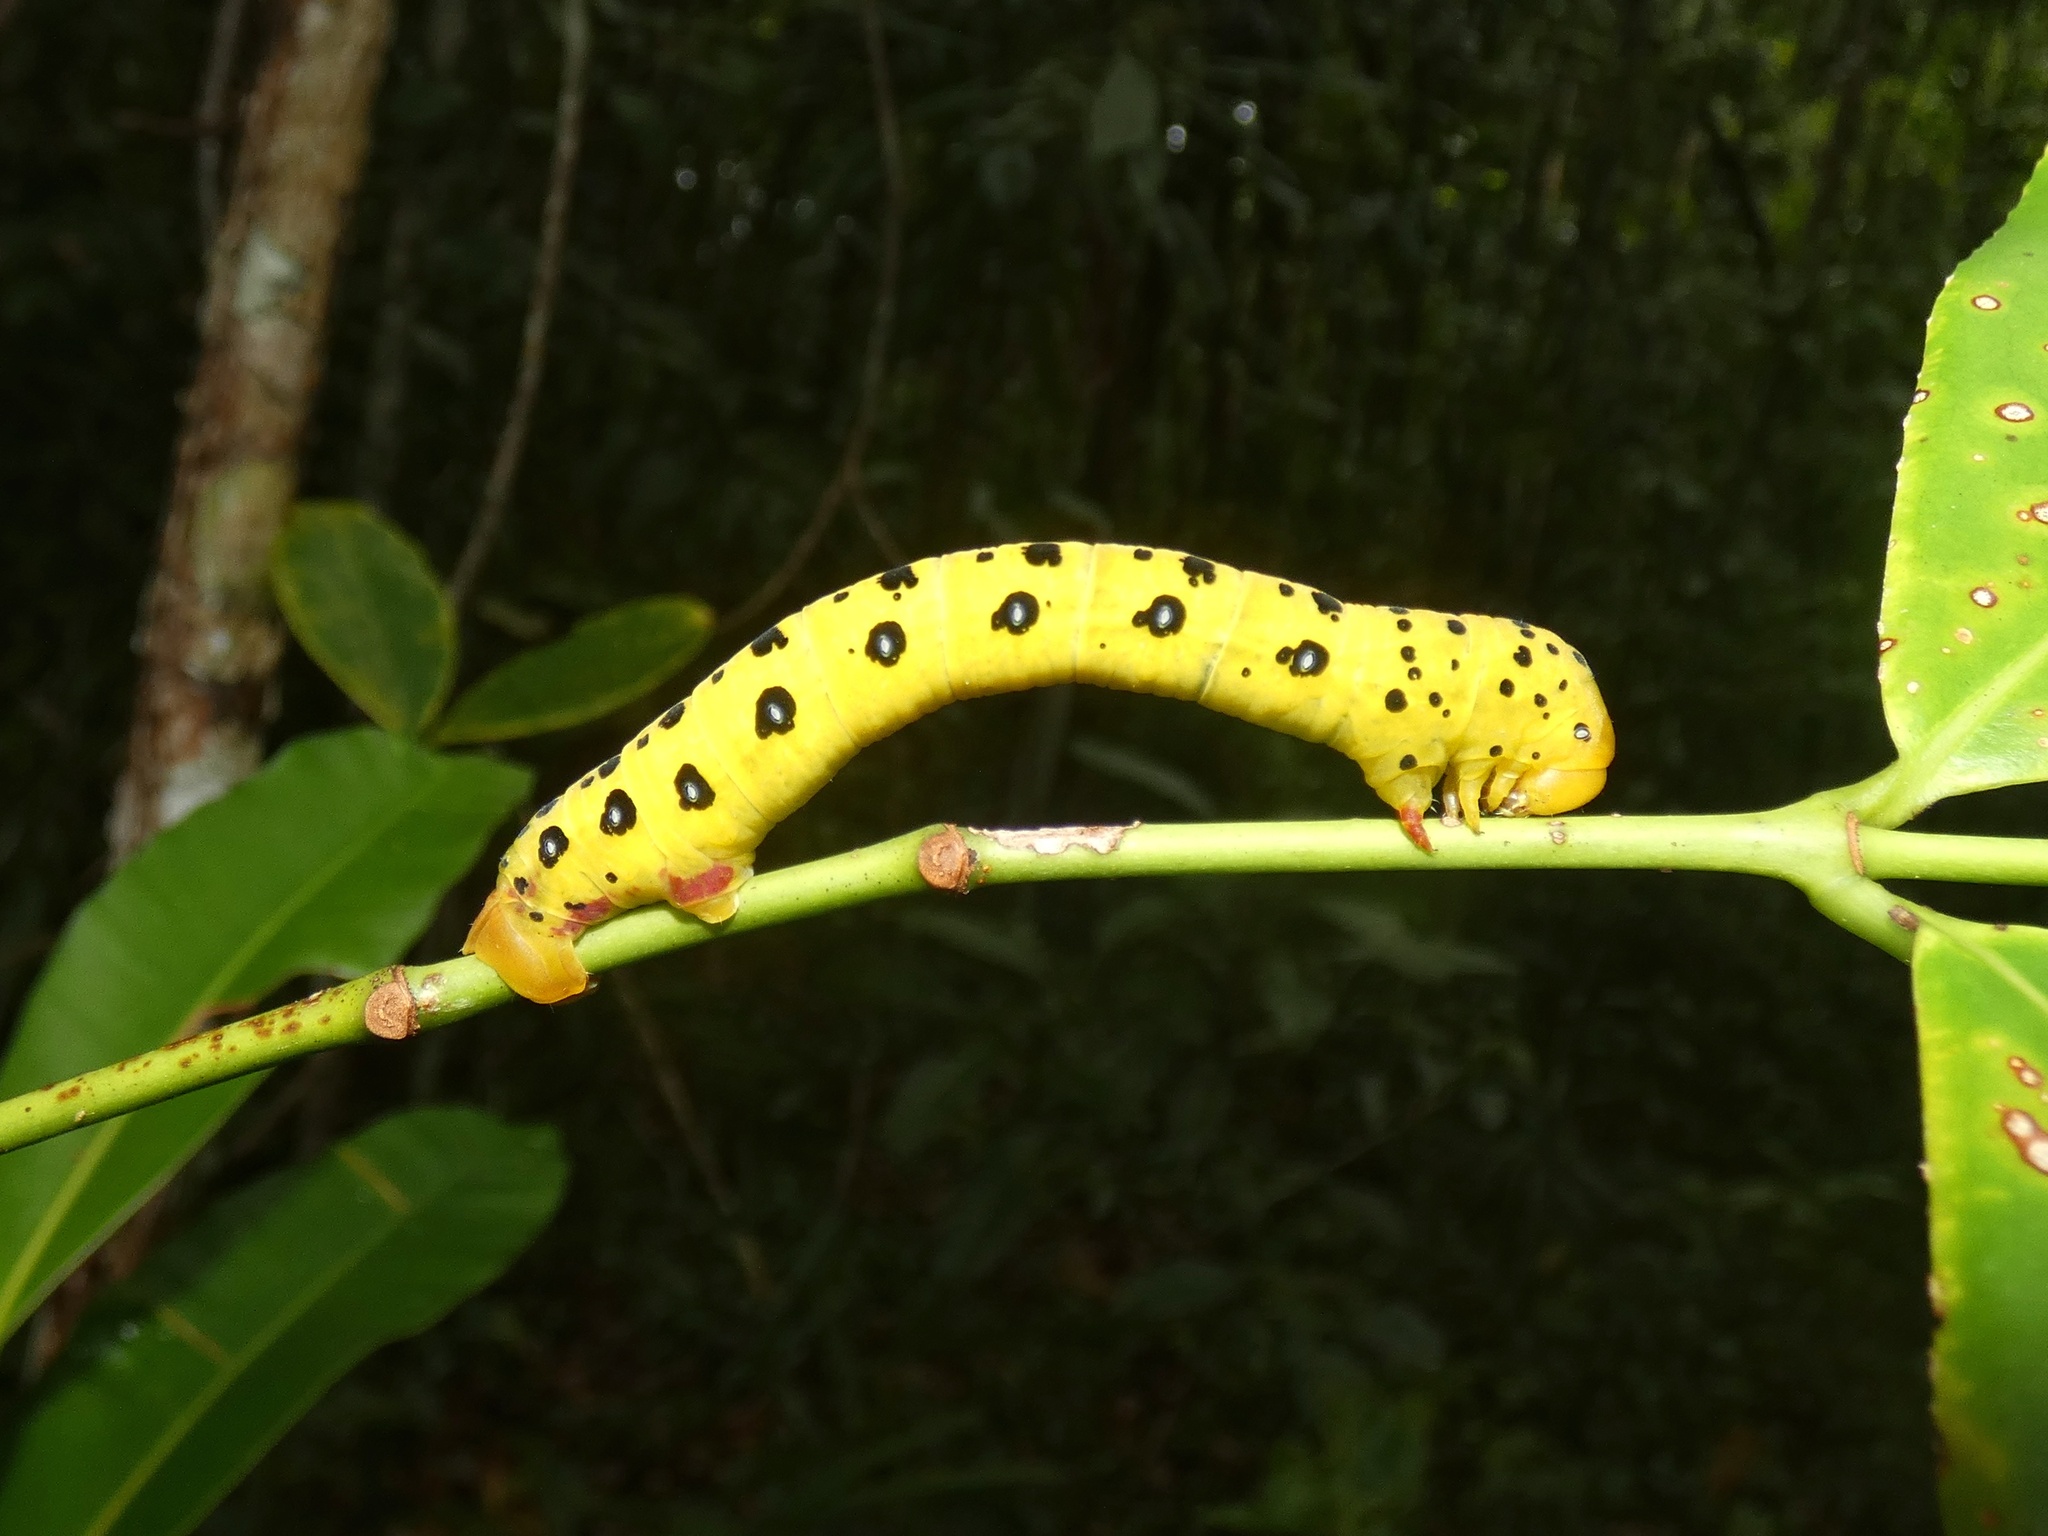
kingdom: Animalia
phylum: Arthropoda
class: Insecta
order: Lepidoptera
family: Geometridae
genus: Dysphania
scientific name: Dysphania numana
